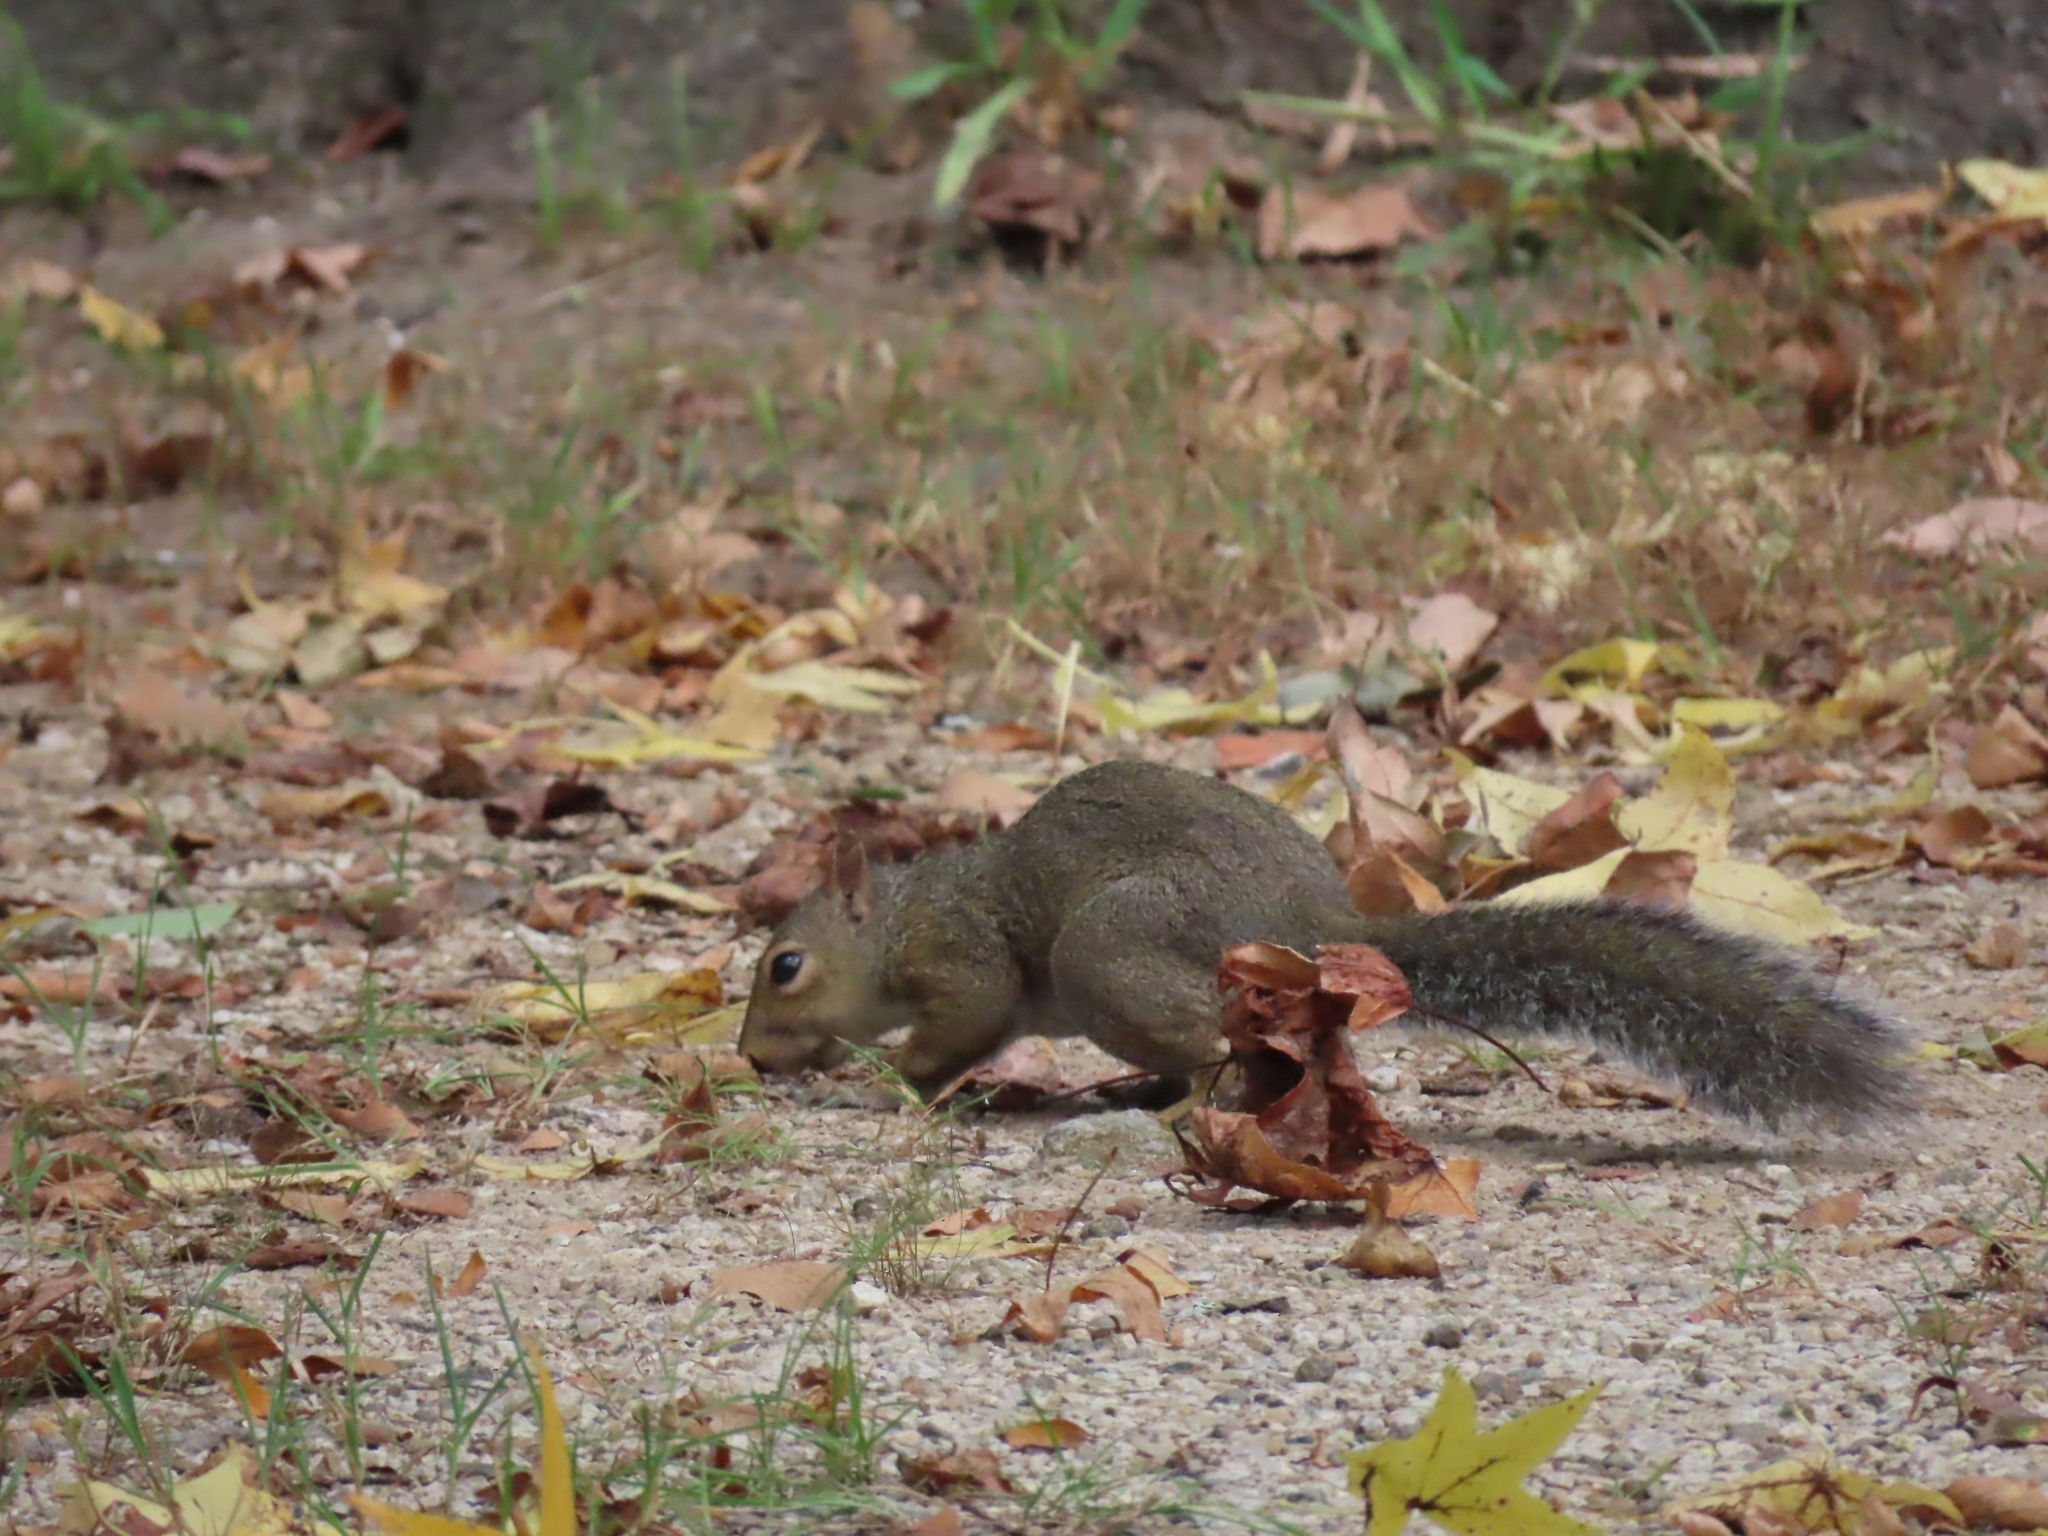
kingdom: Animalia
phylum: Chordata
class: Mammalia
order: Rodentia
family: Sciuridae
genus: Sciurus
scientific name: Sciurus carolinensis
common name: Eastern gray squirrel
